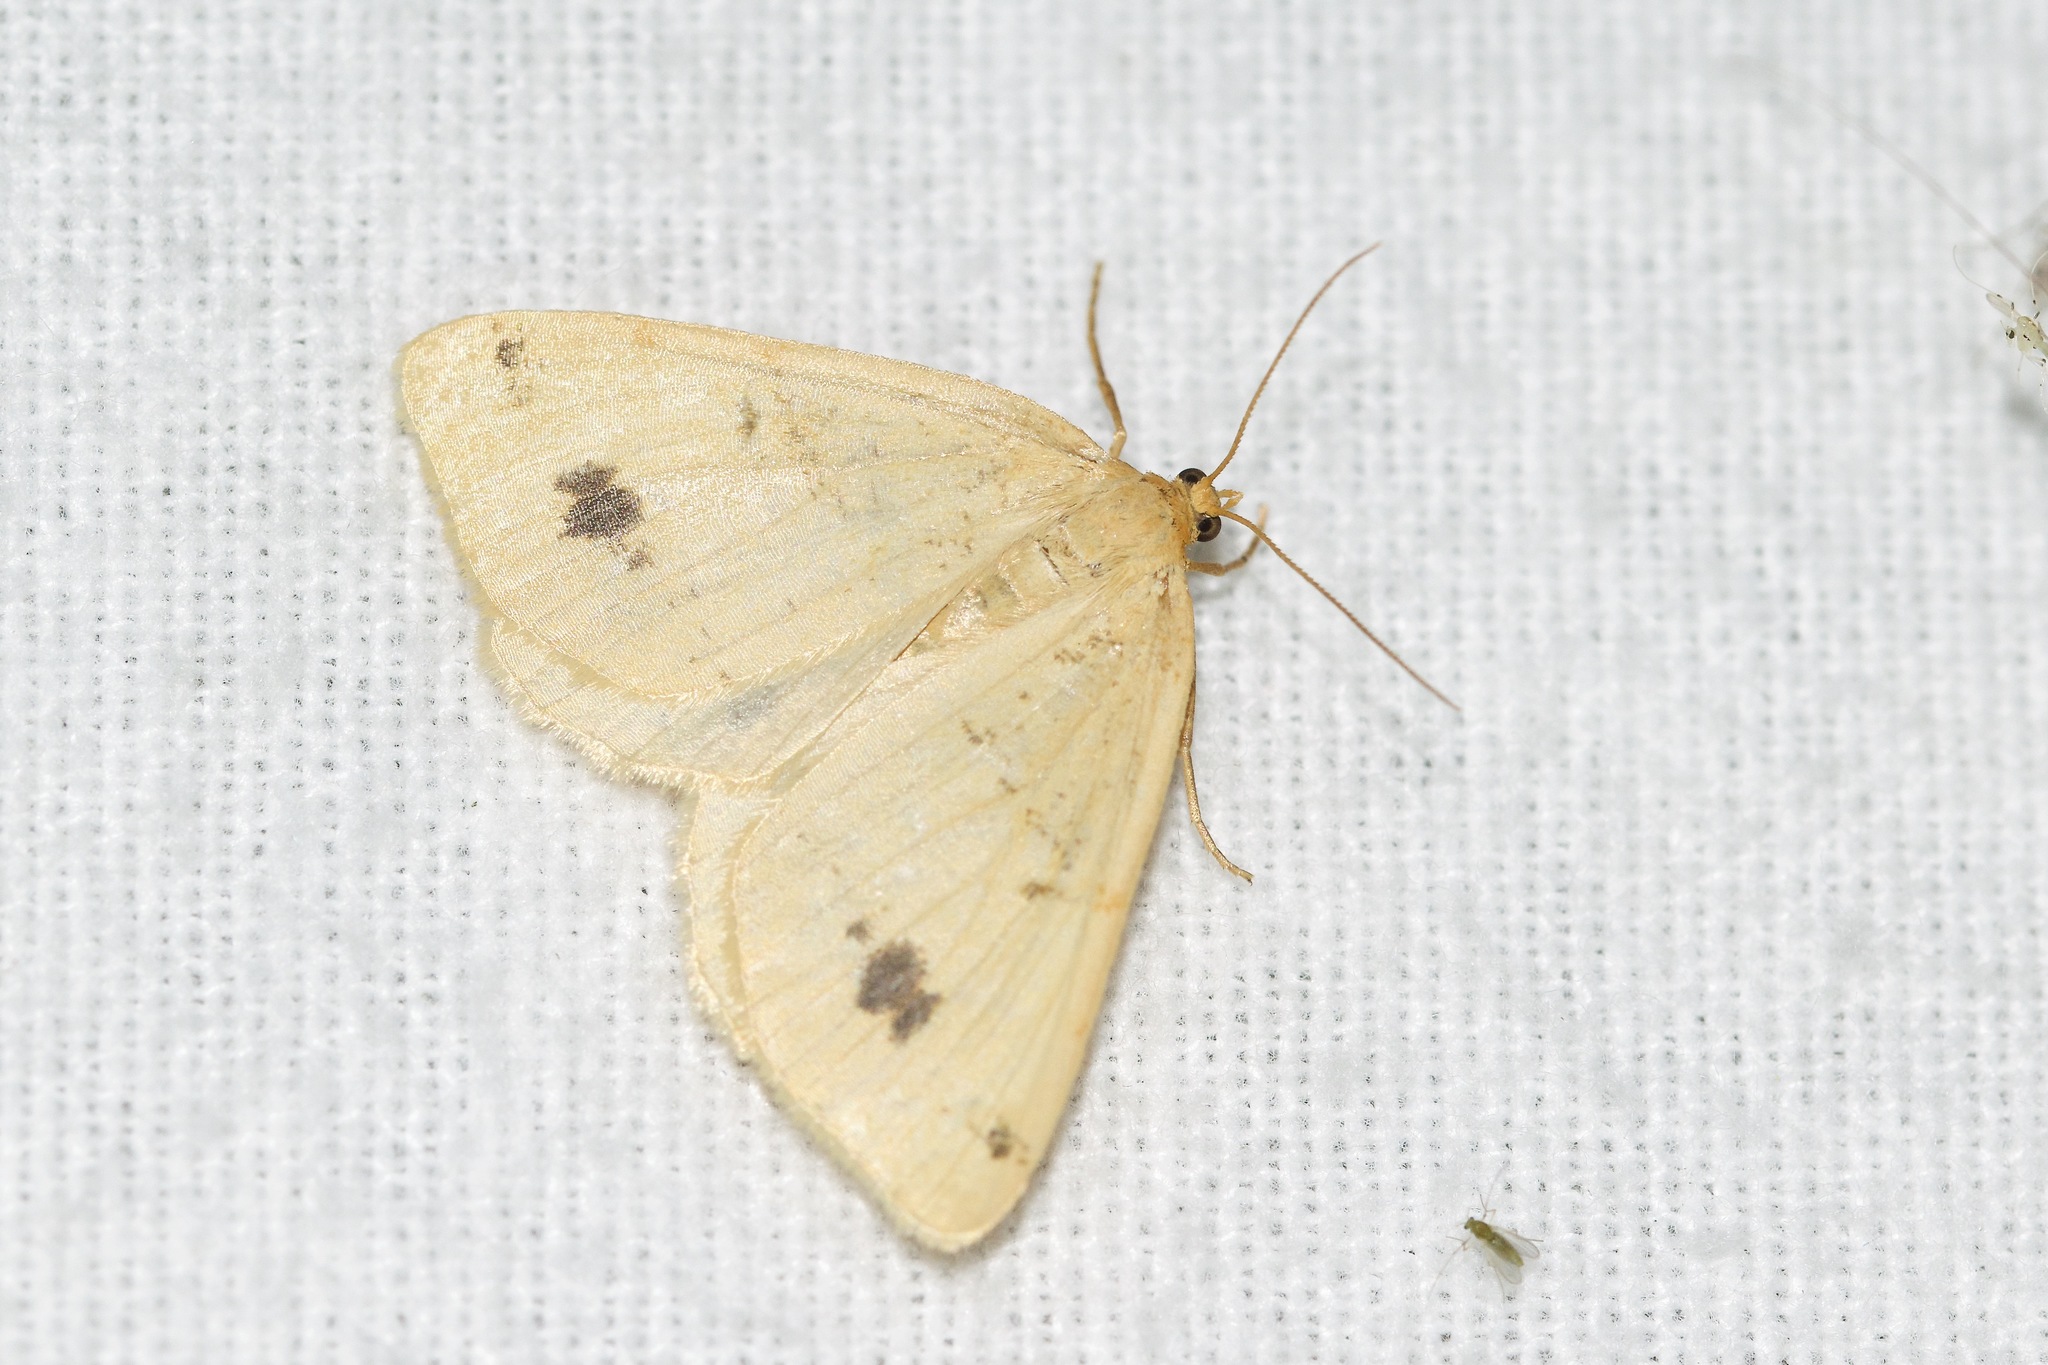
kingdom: Animalia
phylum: Arthropoda
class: Insecta
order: Lepidoptera
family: Geometridae
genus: Macaria
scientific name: Macaria ribearia
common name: Currant spanworm moth
